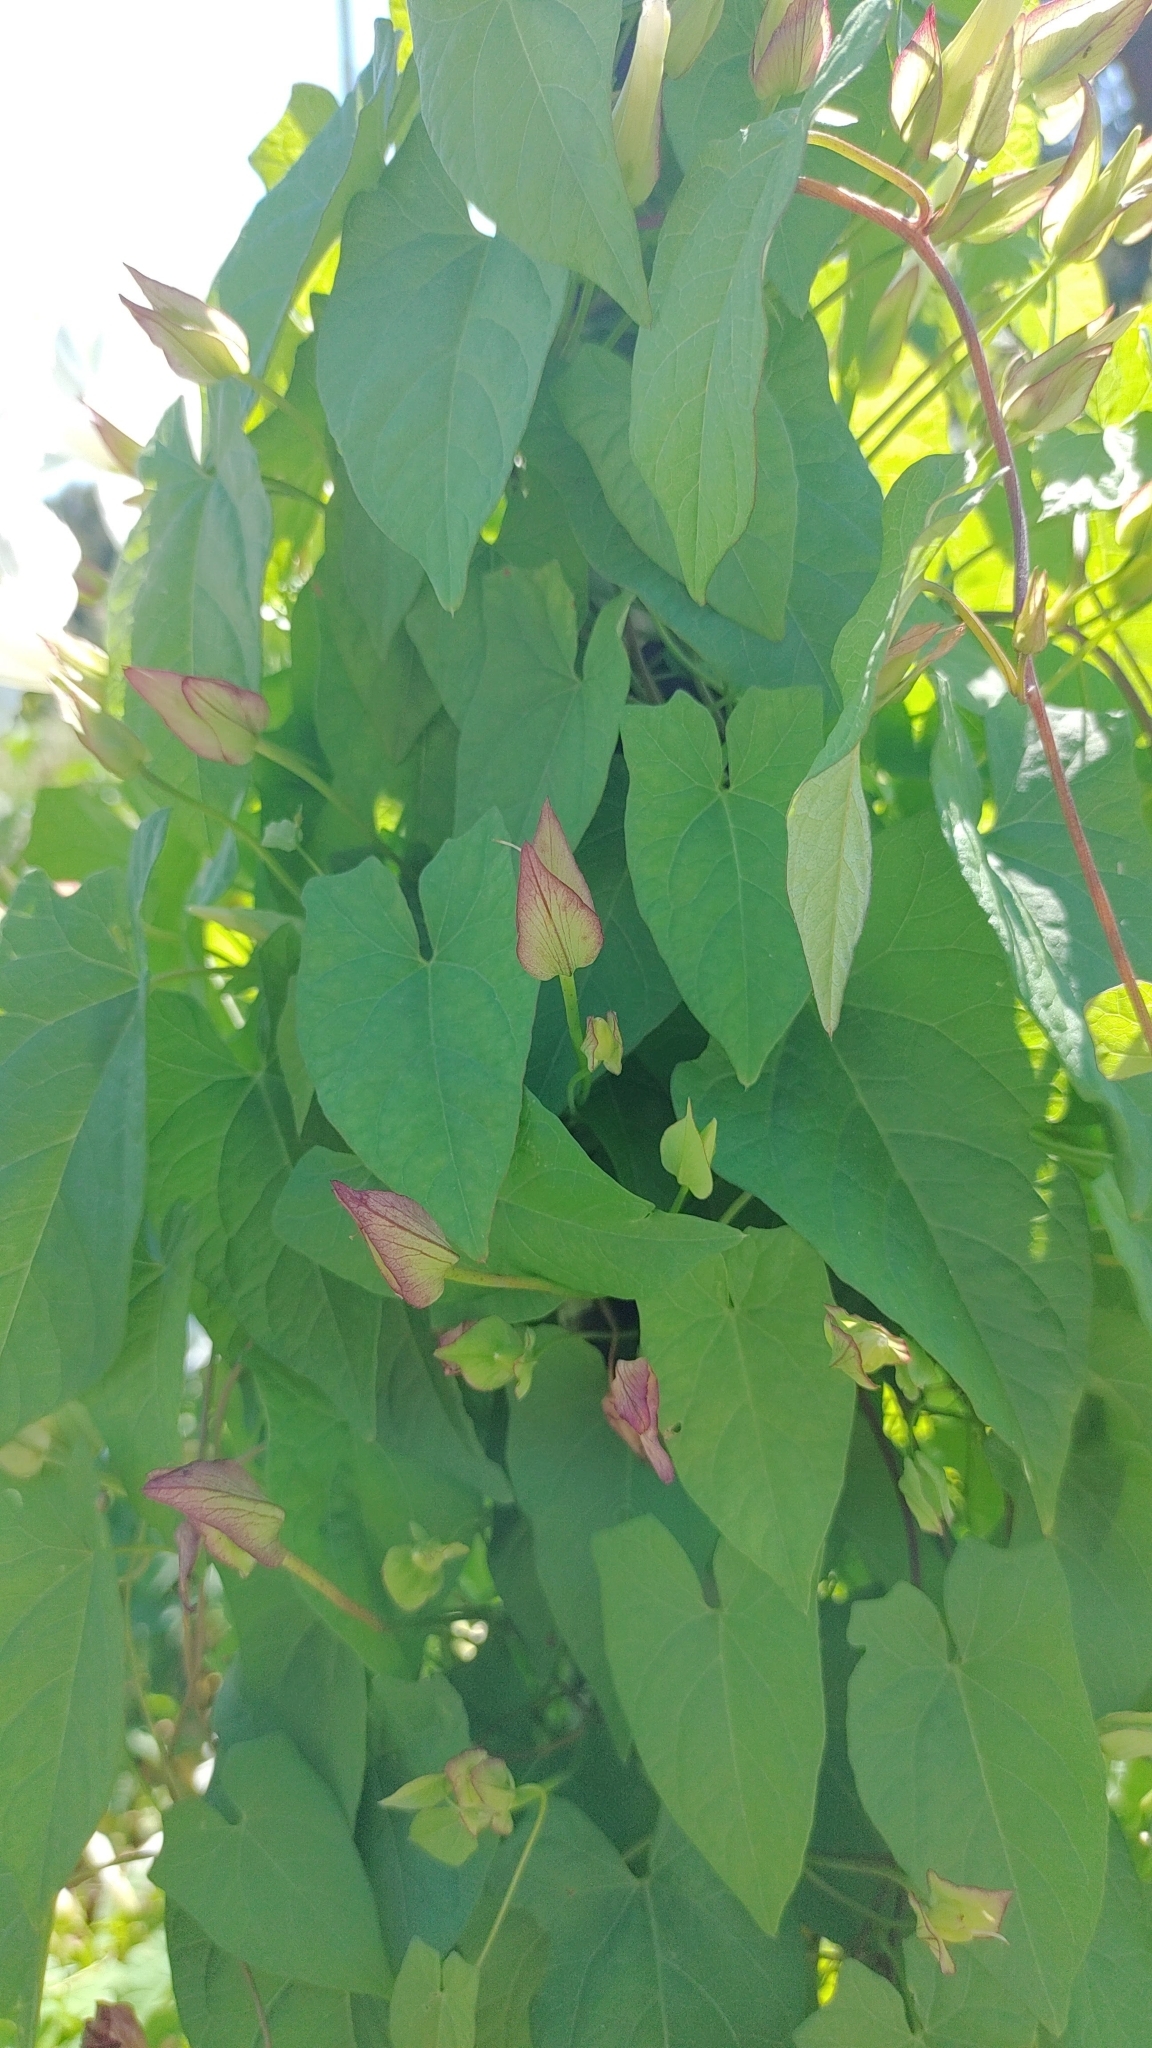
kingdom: Plantae
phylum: Tracheophyta
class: Magnoliopsida
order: Solanales
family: Convolvulaceae
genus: Calystegia
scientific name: Calystegia sepium
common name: Hedge bindweed
